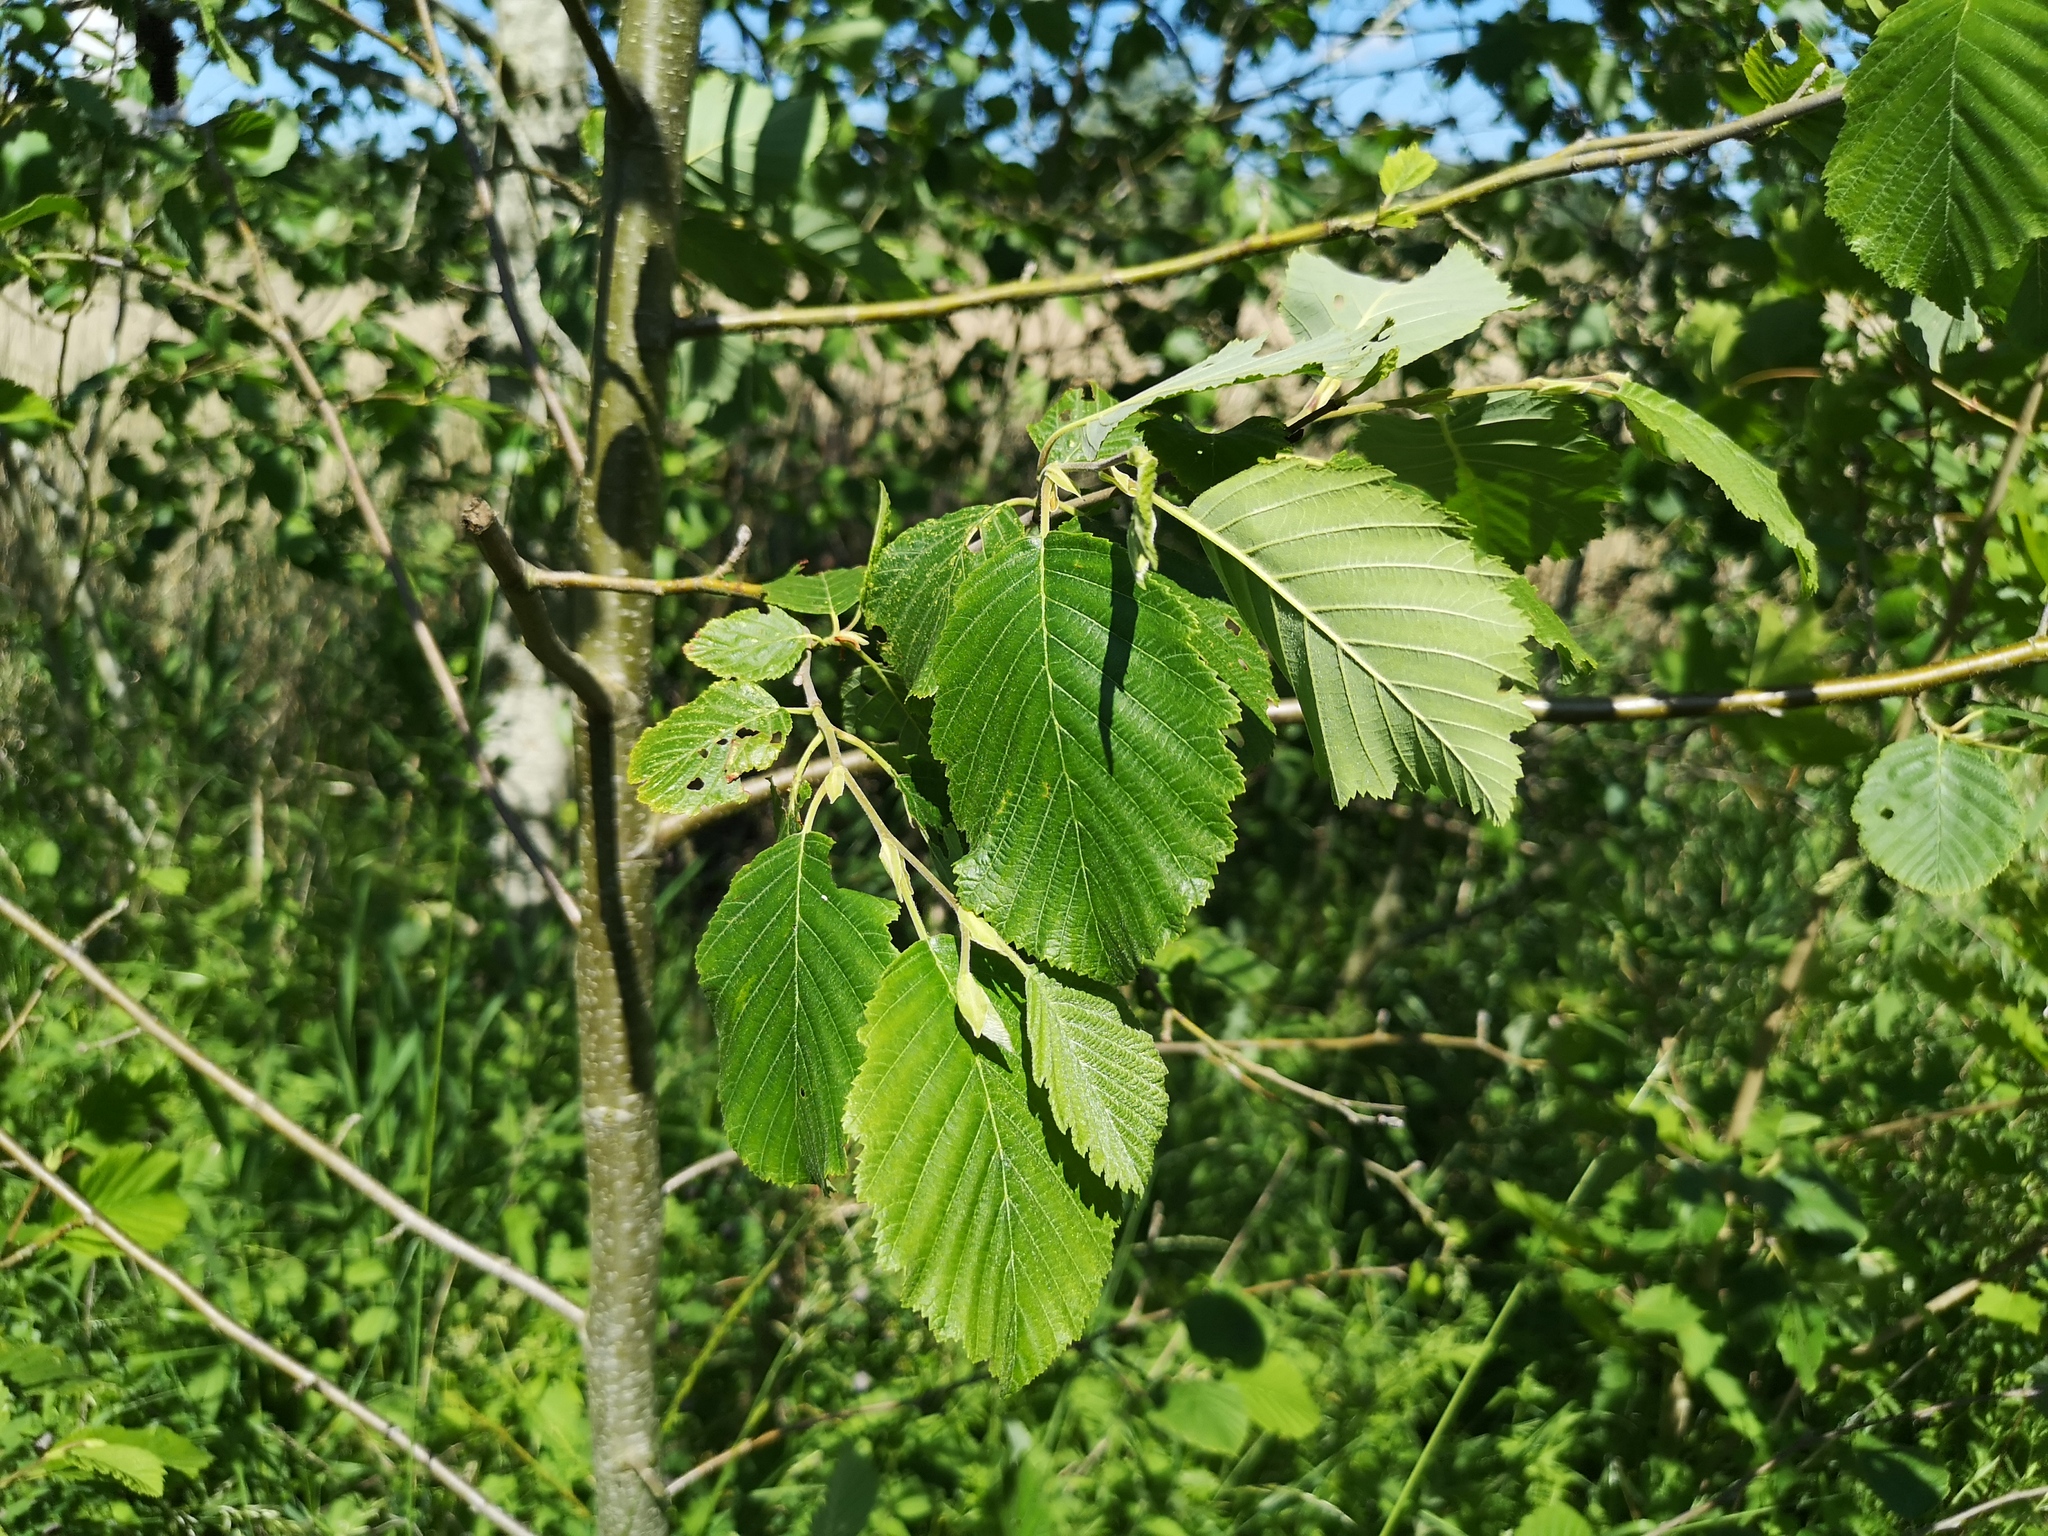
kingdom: Plantae
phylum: Tracheophyta
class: Magnoliopsida
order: Fagales
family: Betulaceae
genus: Alnus
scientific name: Alnus incana
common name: Grey alder
